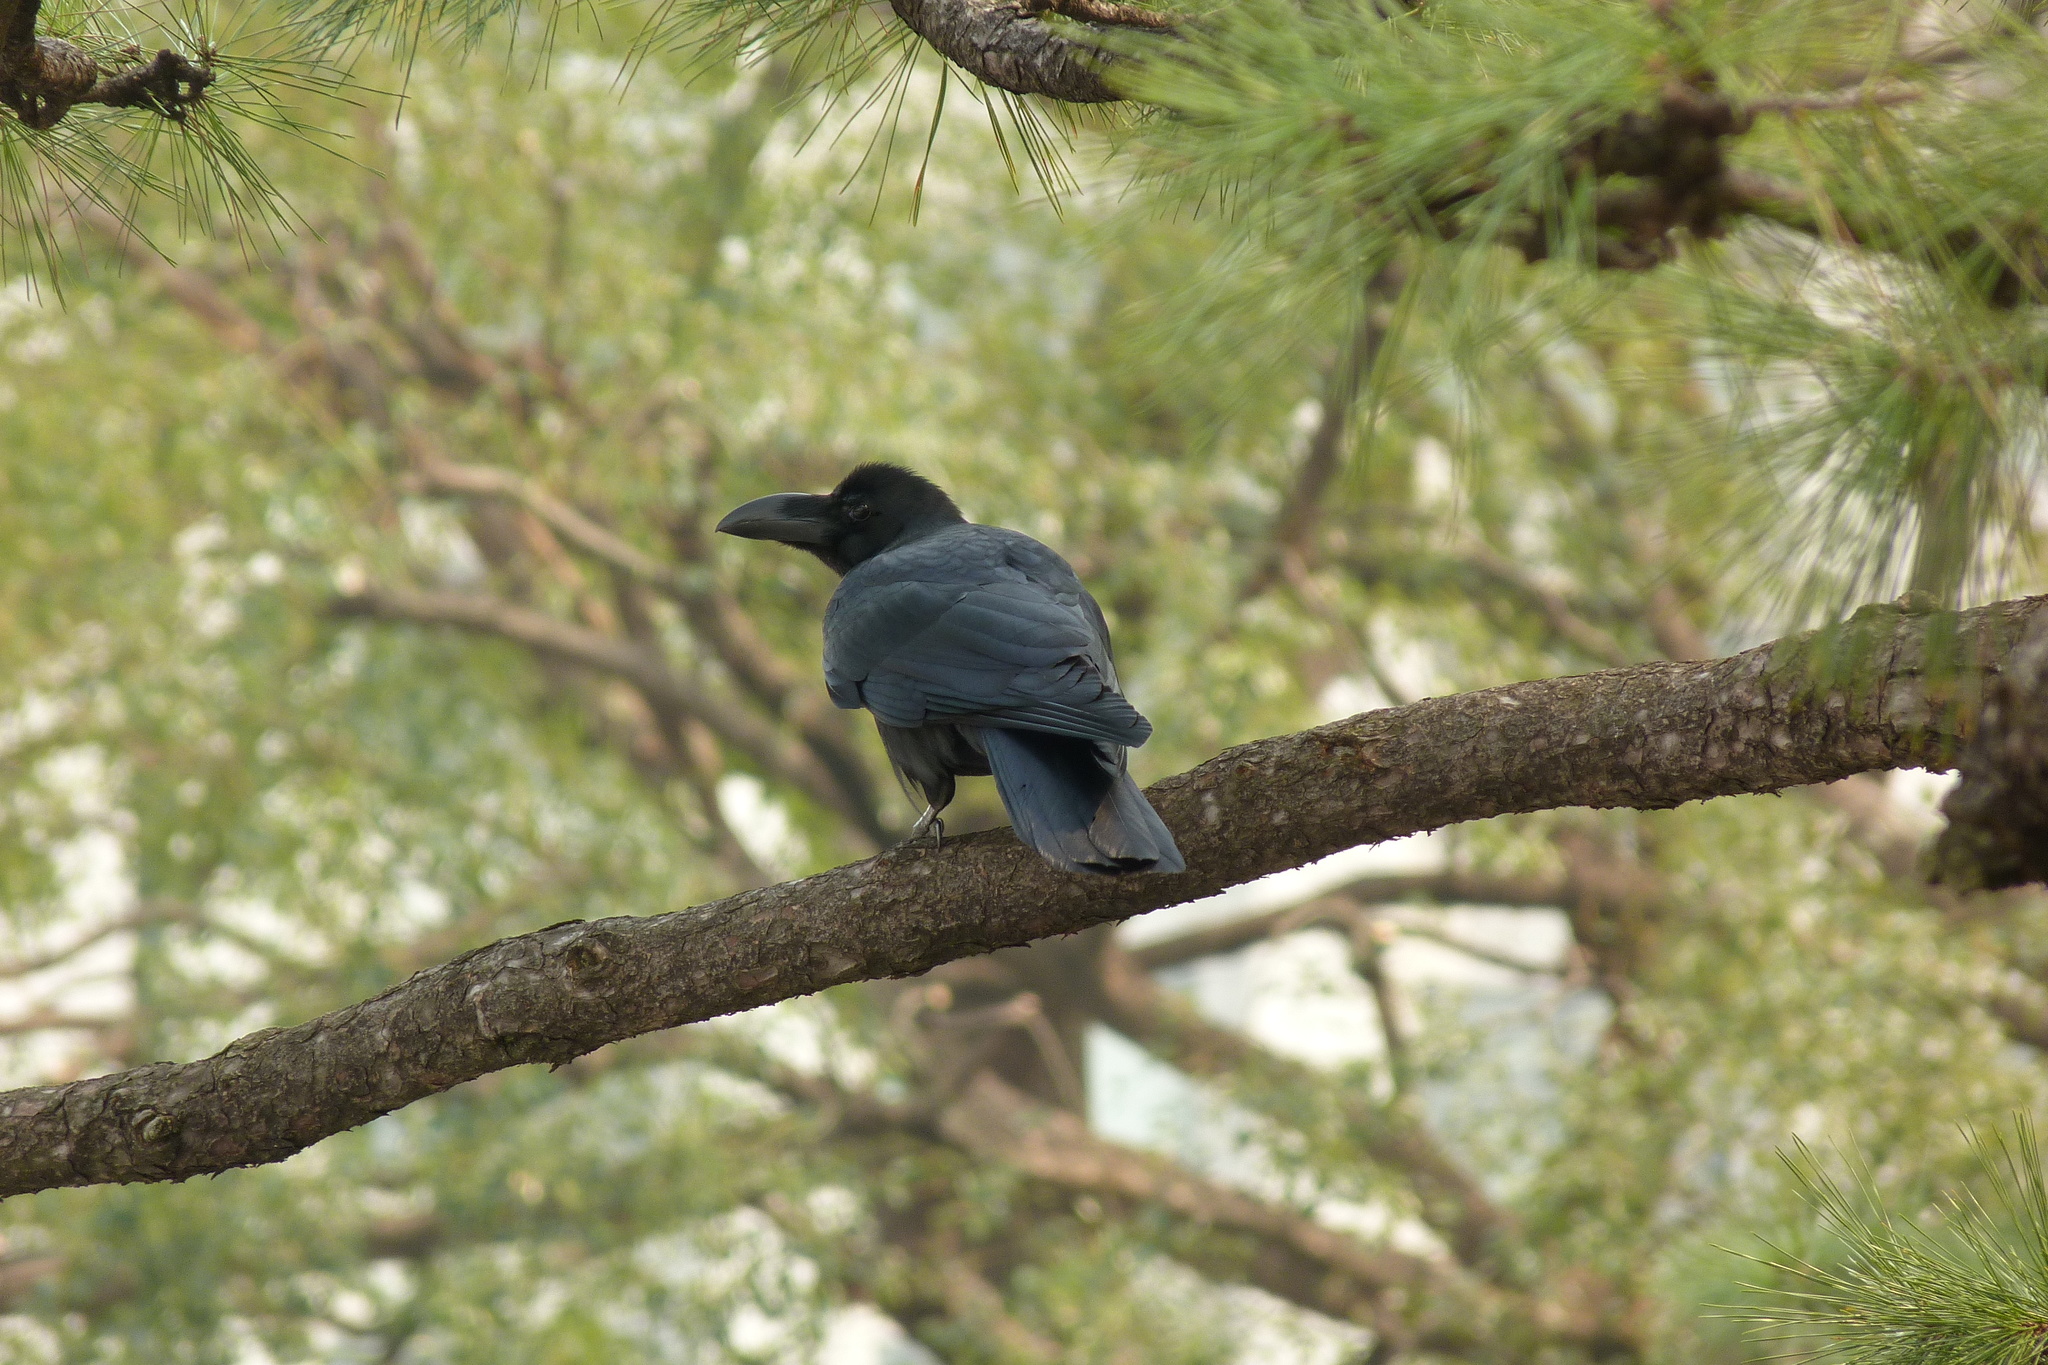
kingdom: Animalia
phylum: Chordata
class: Aves
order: Passeriformes
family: Corvidae
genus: Corvus
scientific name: Corvus macrorhynchos
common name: Large-billed crow
